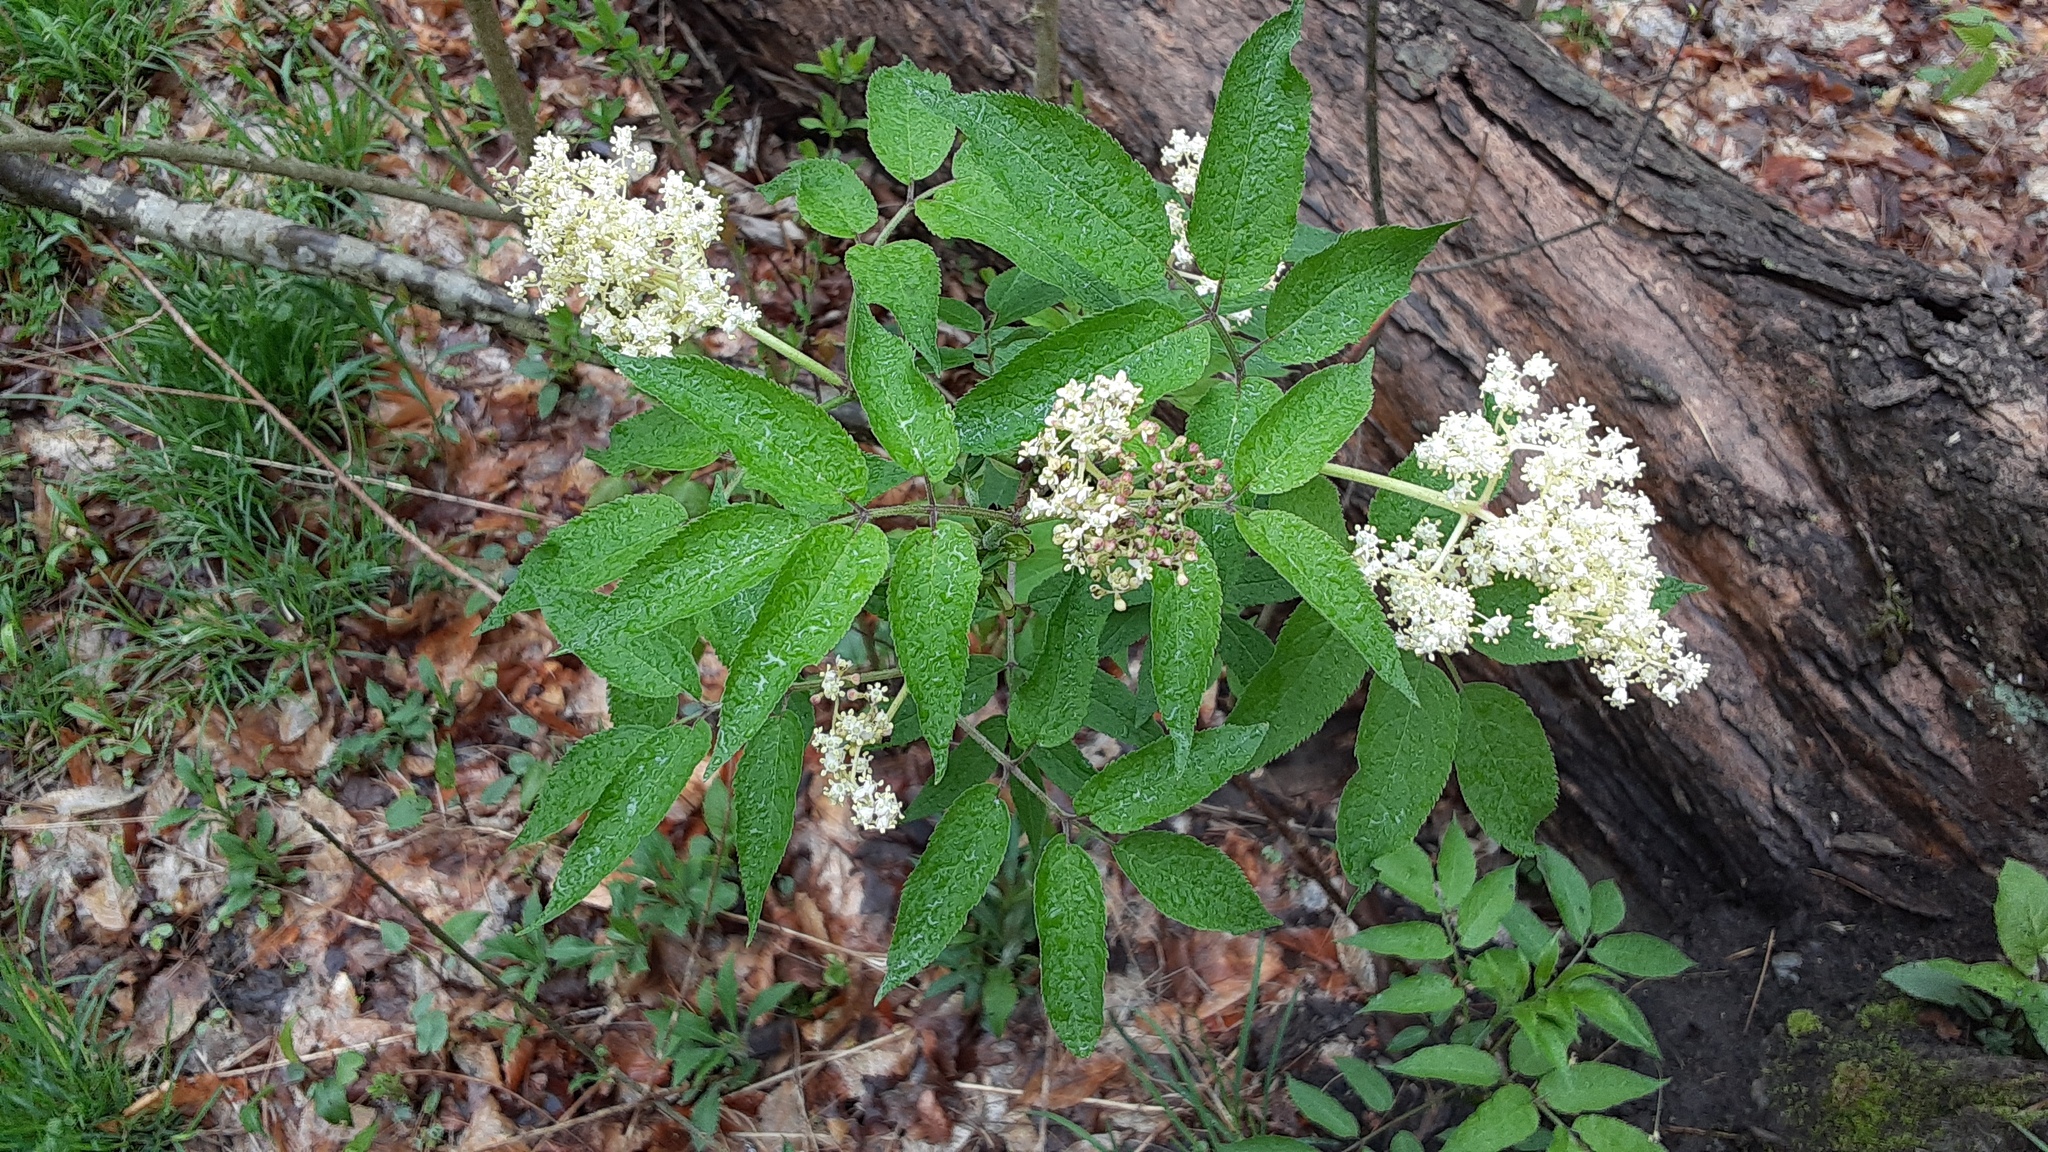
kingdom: Plantae
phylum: Tracheophyta
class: Magnoliopsida
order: Dipsacales
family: Viburnaceae
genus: Sambucus
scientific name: Sambucus racemosa
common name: Red-berried elder
